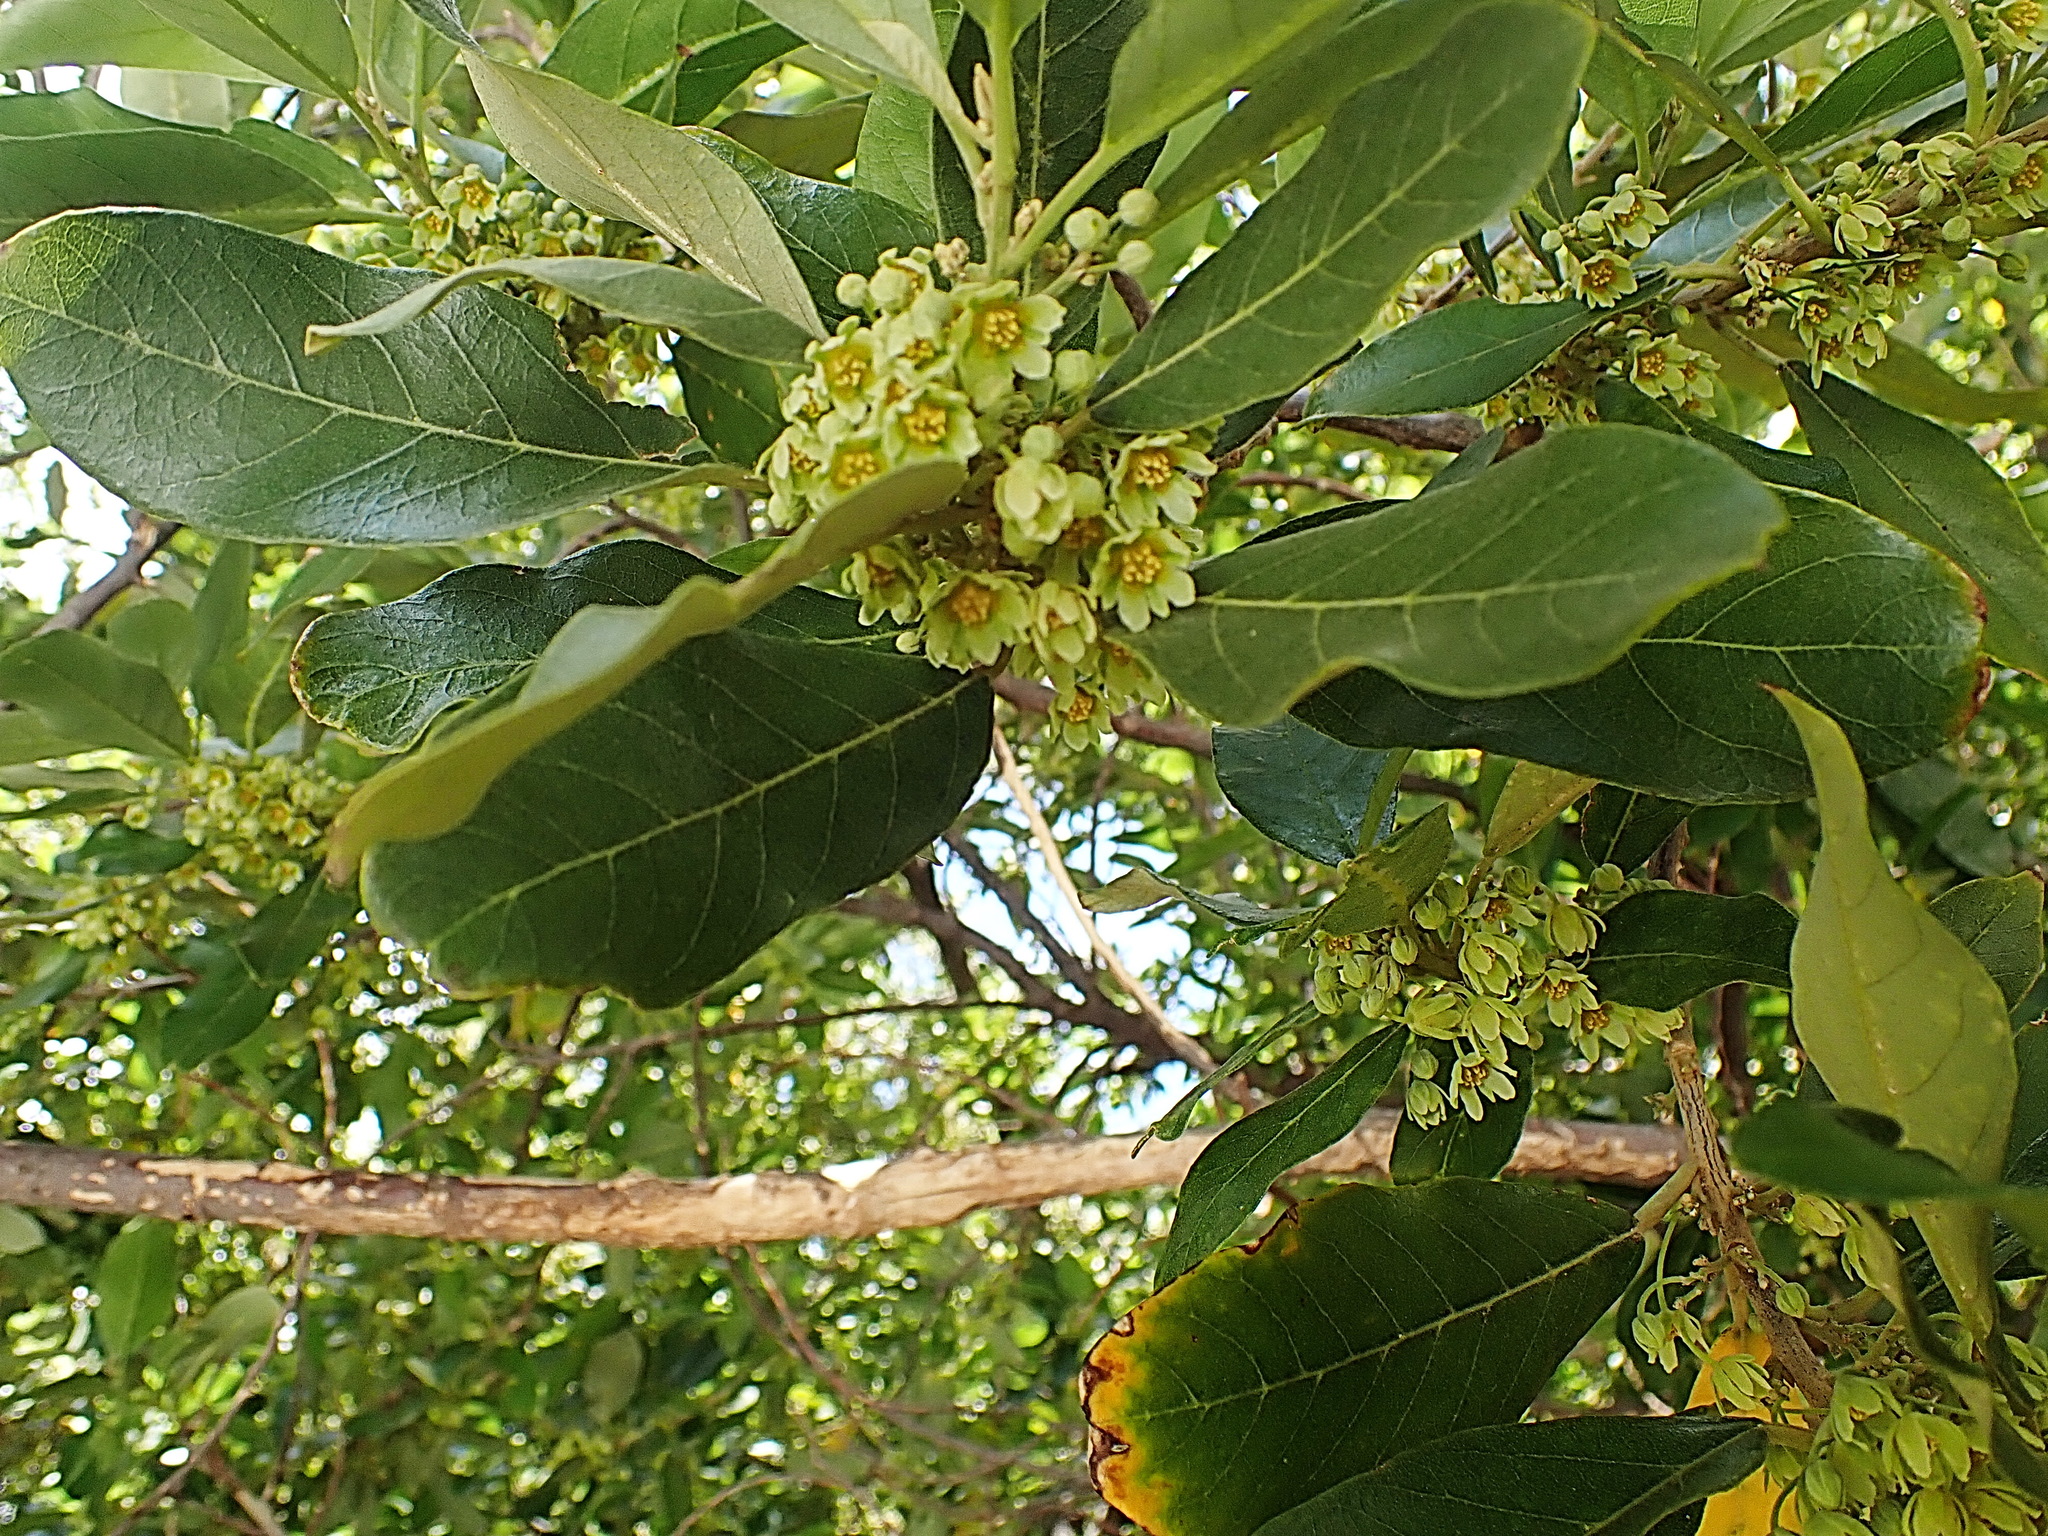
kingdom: Plantae
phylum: Tracheophyta
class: Magnoliopsida
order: Malpighiales
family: Achariaceae
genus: Kiggelaria
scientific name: Kiggelaria africana
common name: Wild peach
